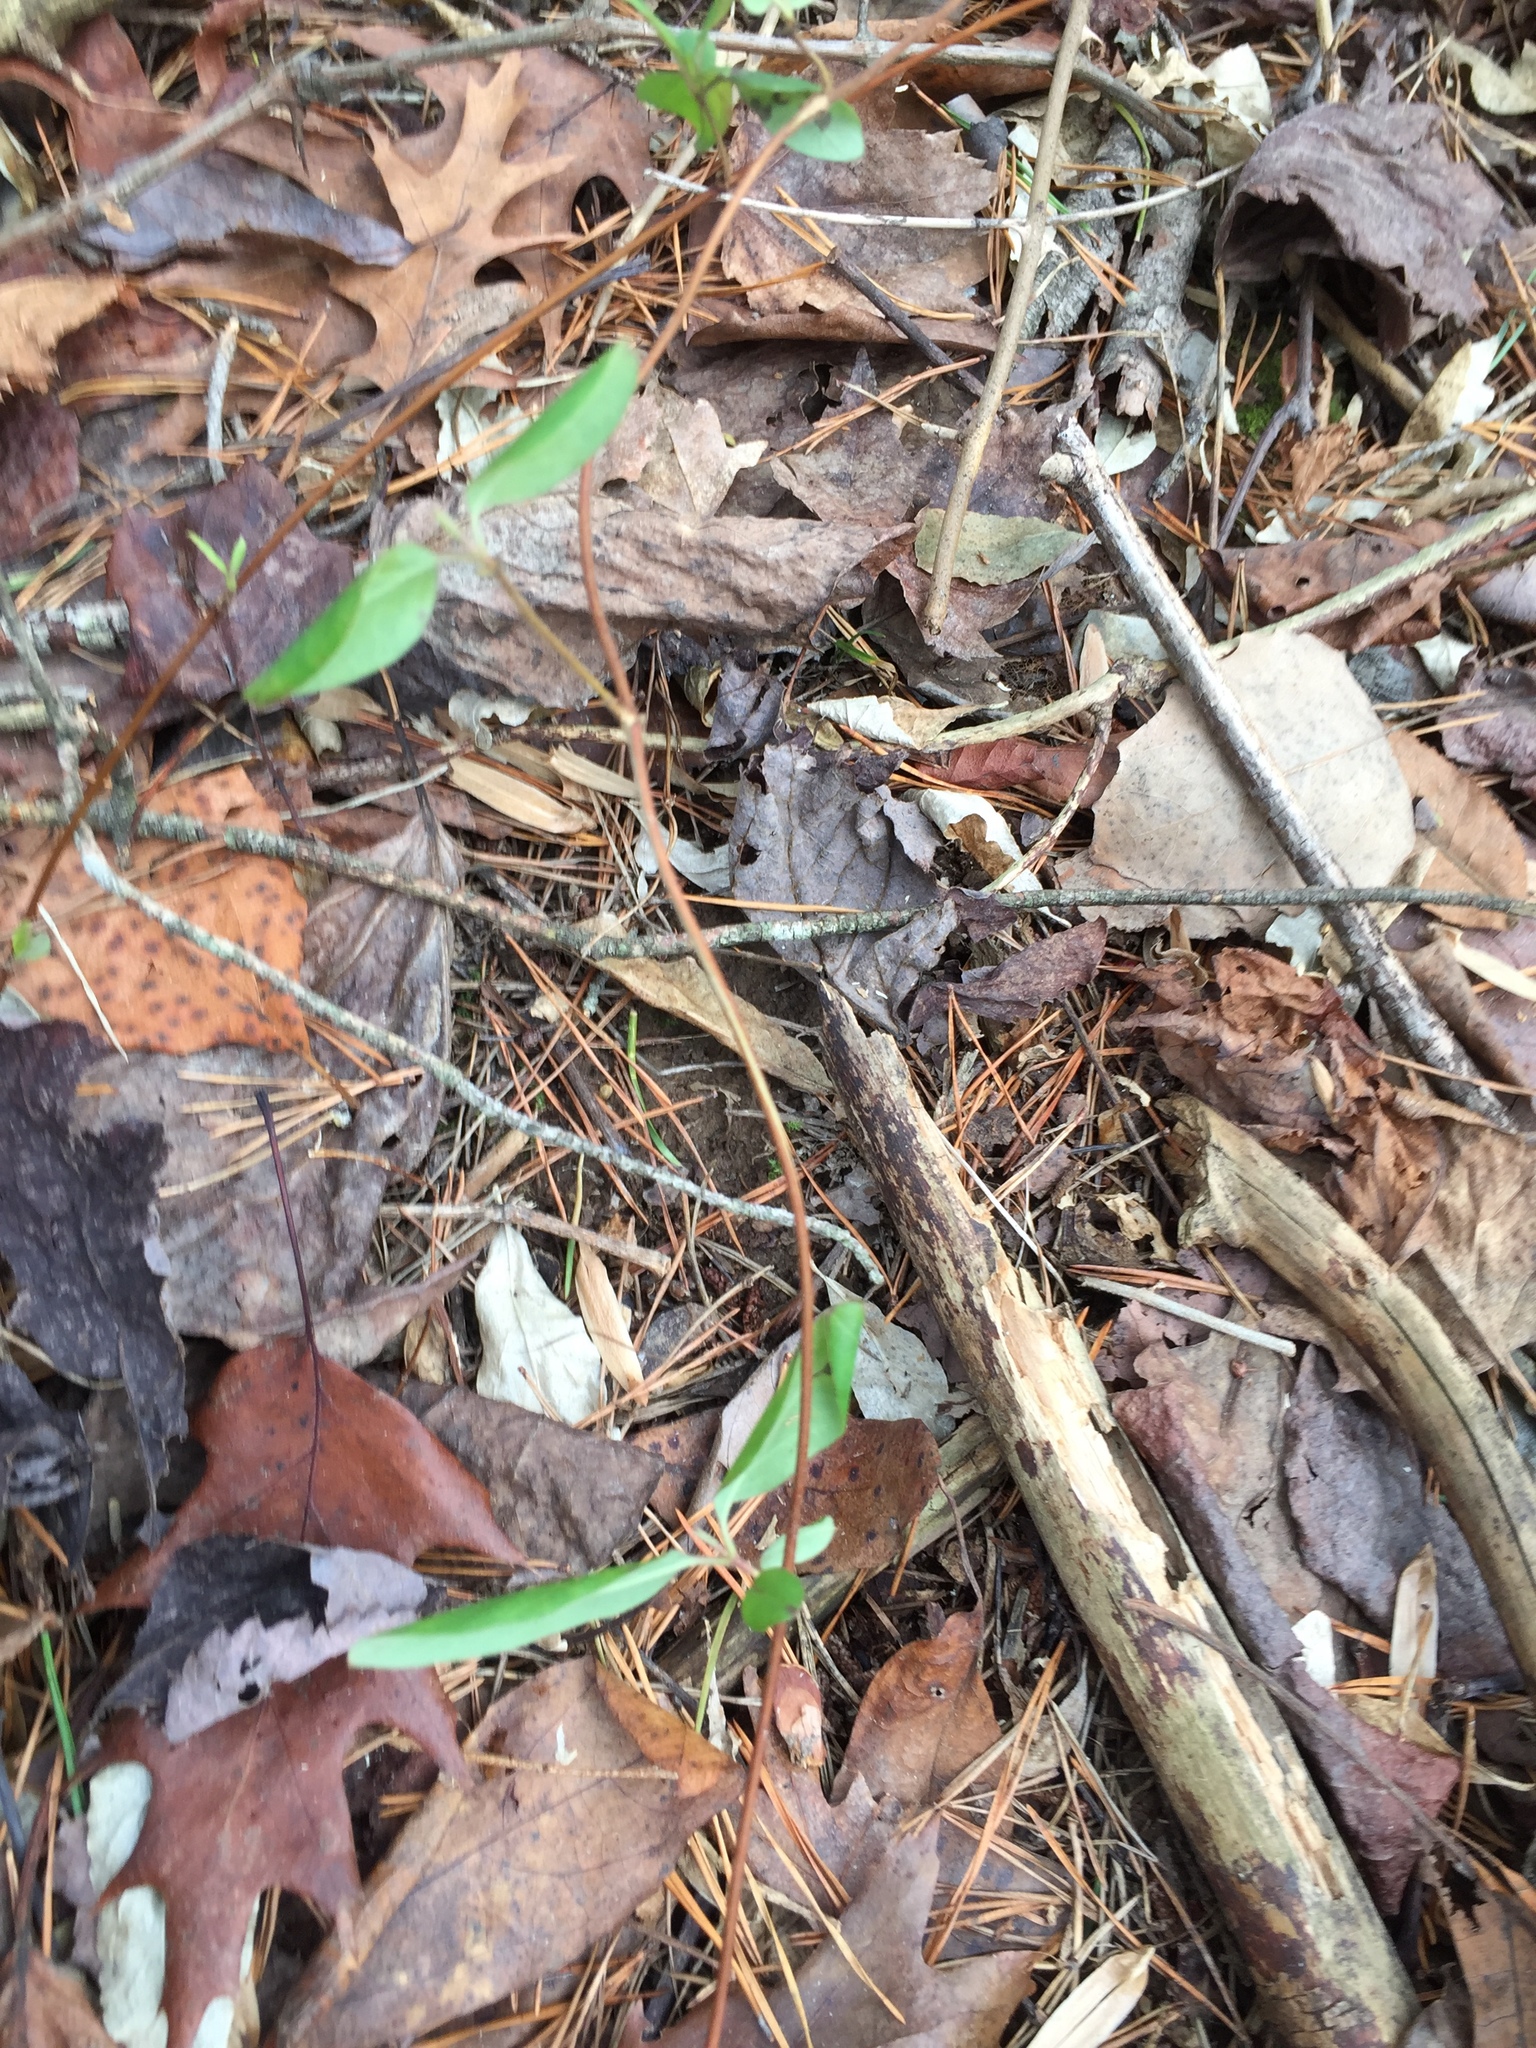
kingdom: Plantae
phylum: Tracheophyta
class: Magnoliopsida
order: Dipsacales
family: Caprifoliaceae
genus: Lonicera
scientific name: Lonicera japonica
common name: Japanese honeysuckle
